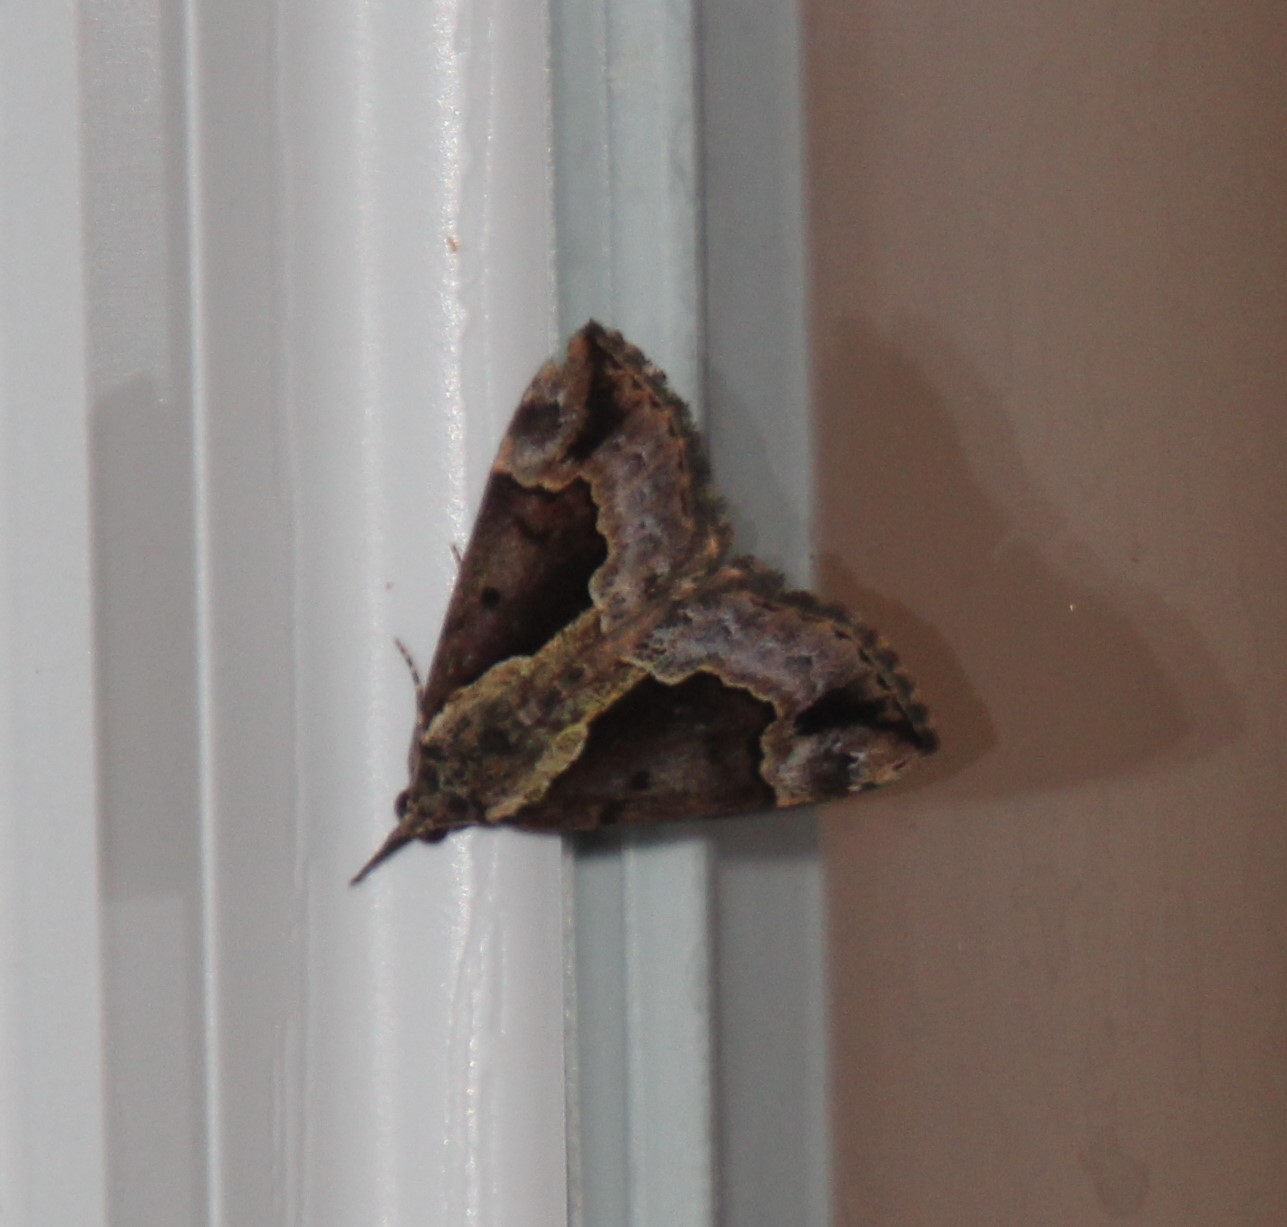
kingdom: Animalia
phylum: Arthropoda
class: Insecta
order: Lepidoptera
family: Erebidae
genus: Hypena
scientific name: Hypena baltimoralis
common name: Baltimore snout
